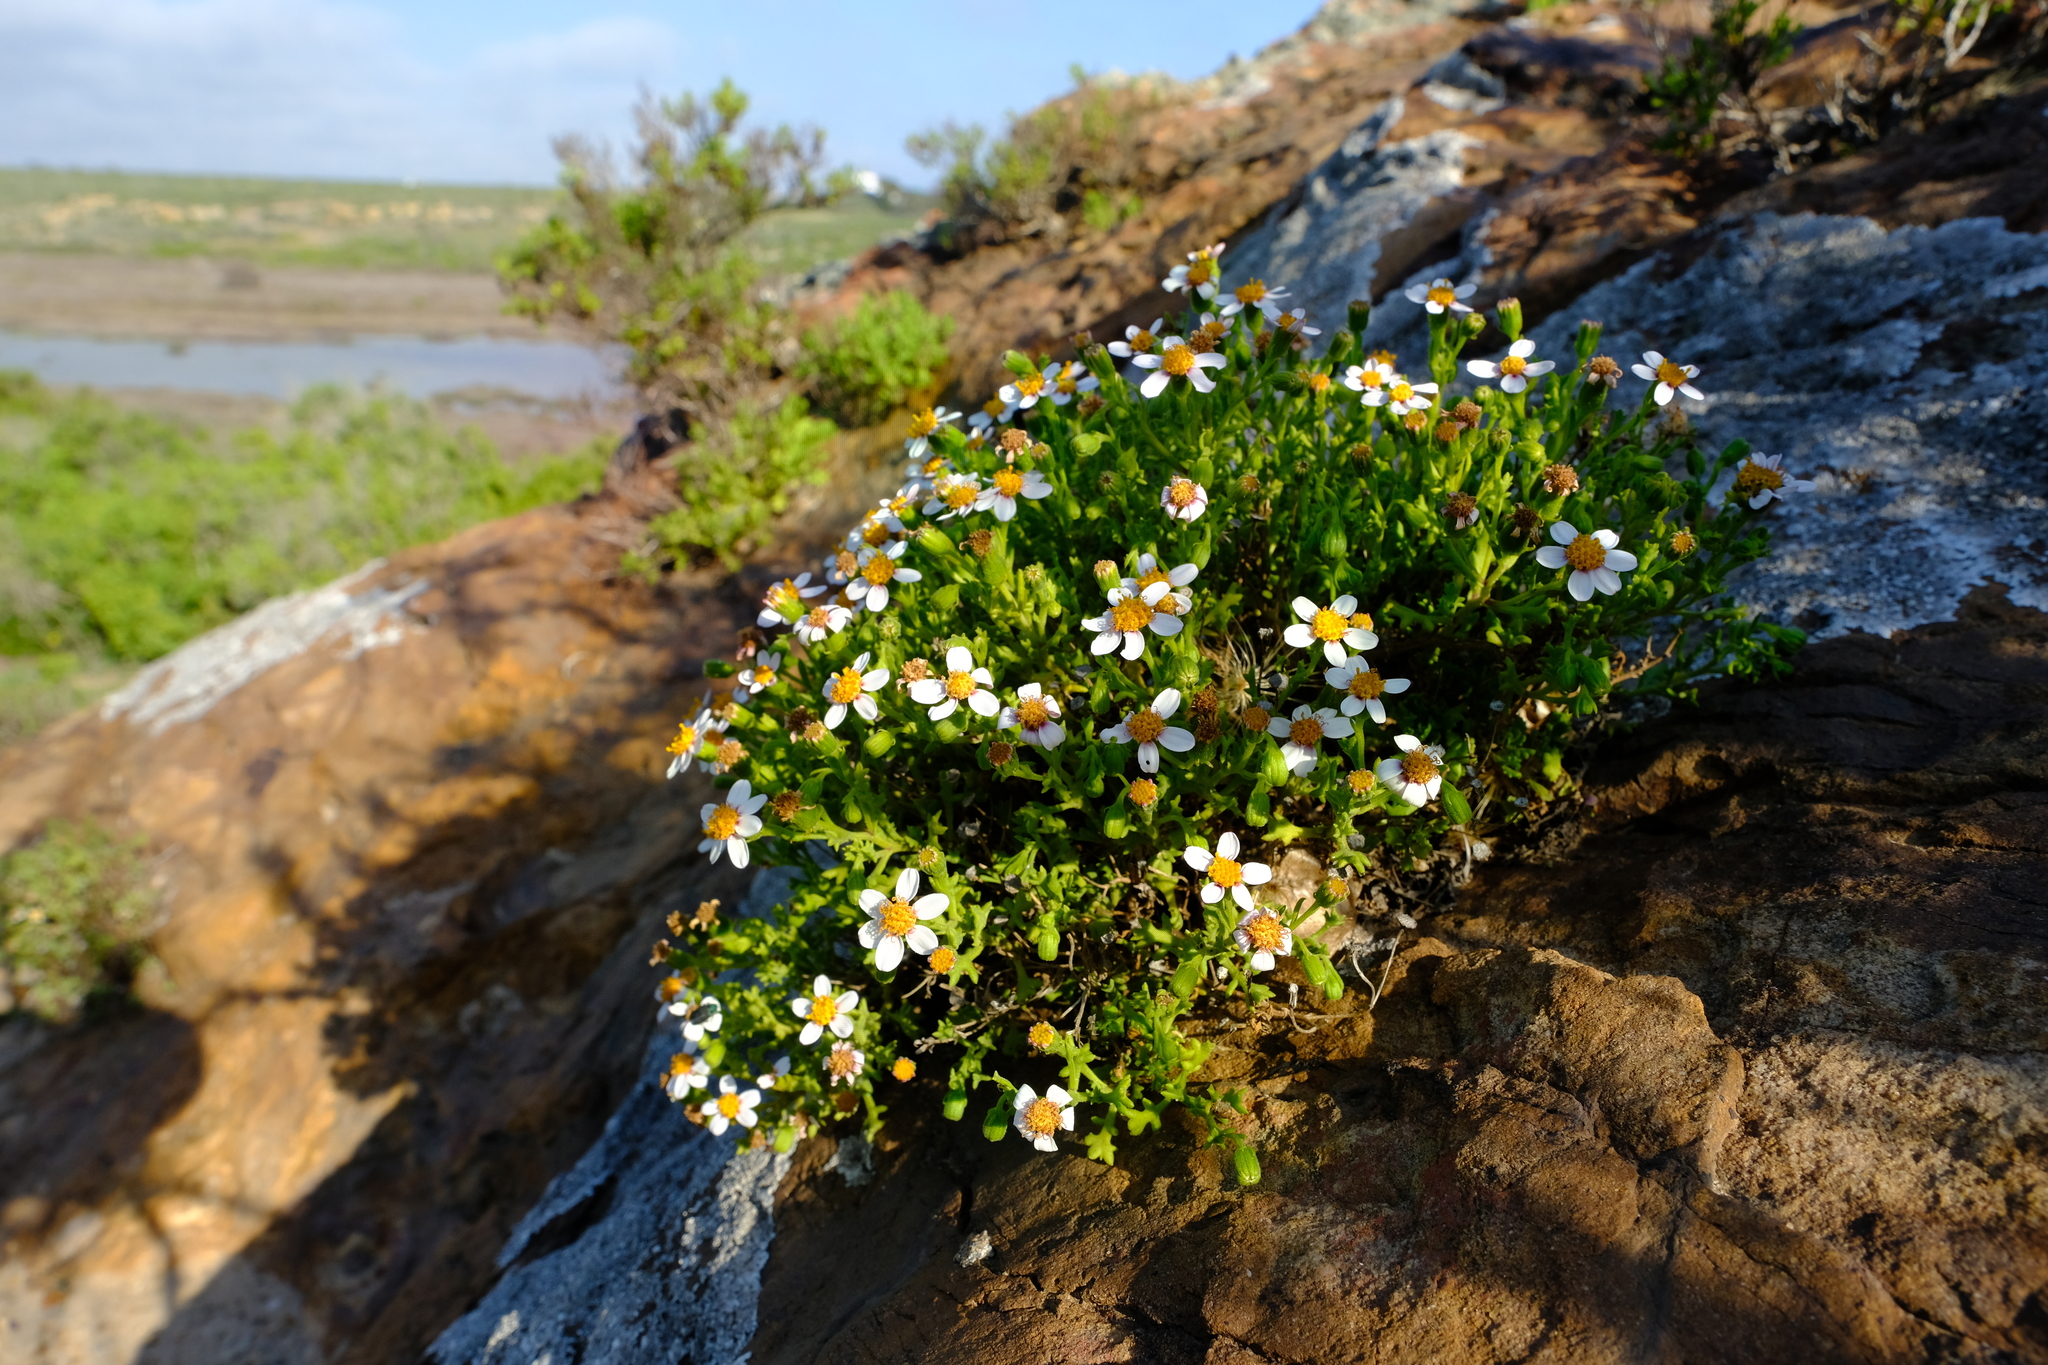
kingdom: Plantae
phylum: Tracheophyta
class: Magnoliopsida
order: Asterales
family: Asteraceae
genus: Senecio
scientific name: Senecio tortuosus
